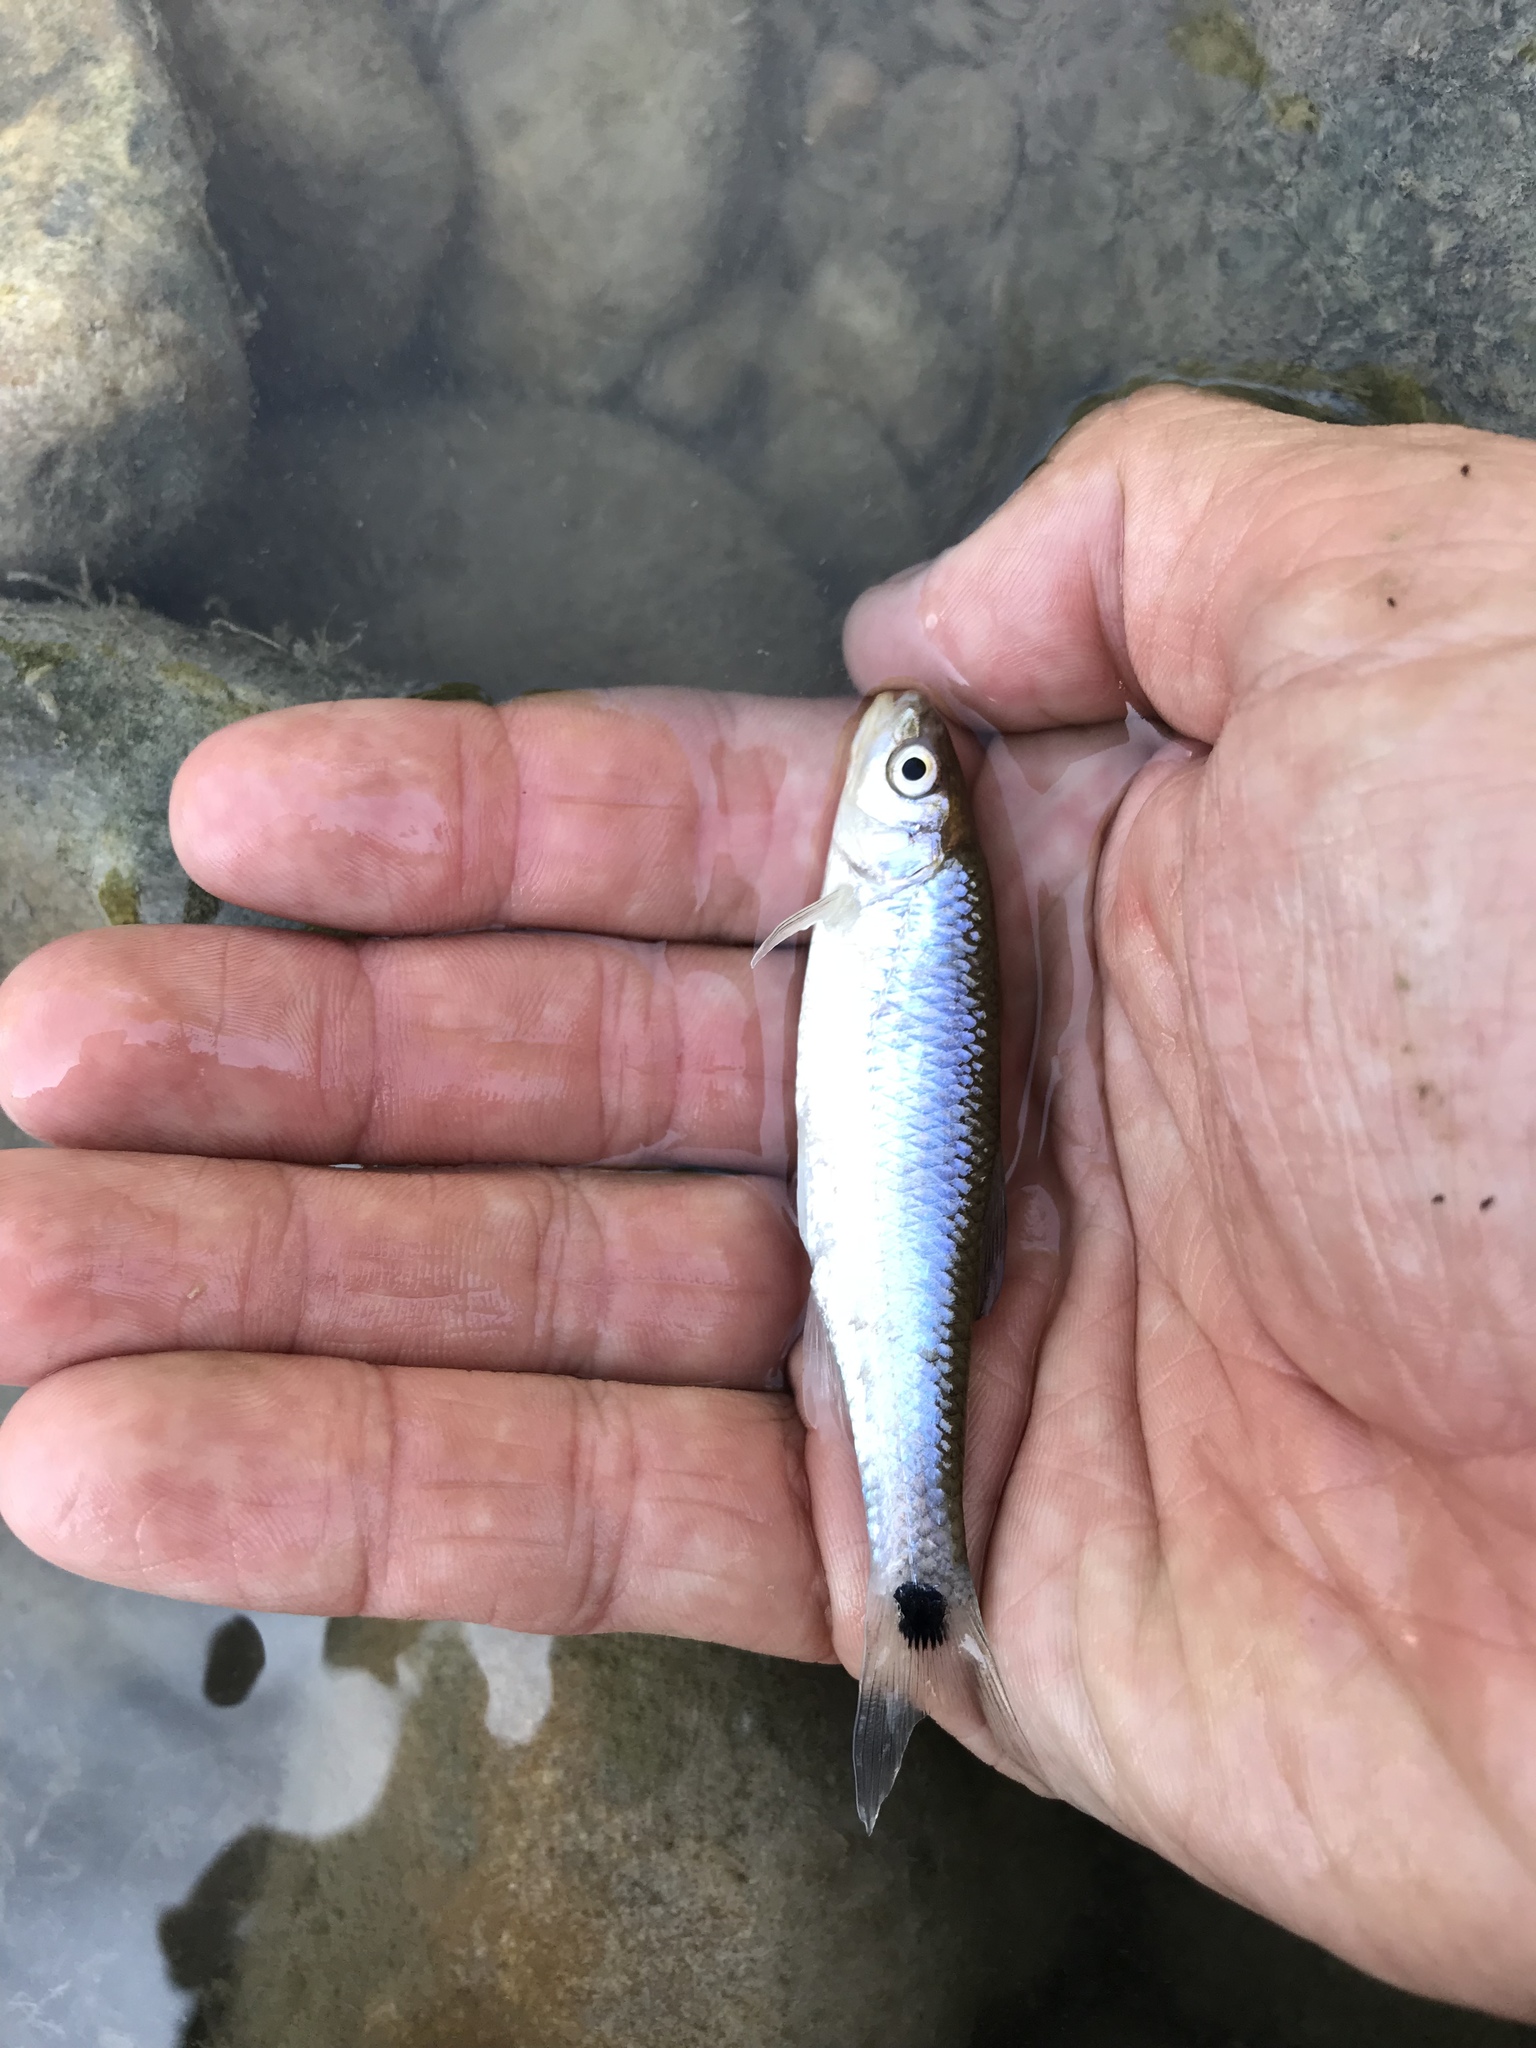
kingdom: Animalia
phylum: Chordata
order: Cypriniformes
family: Cyprinidae
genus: Cyprinella
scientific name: Cyprinella venusta
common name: Blacktail shiner
